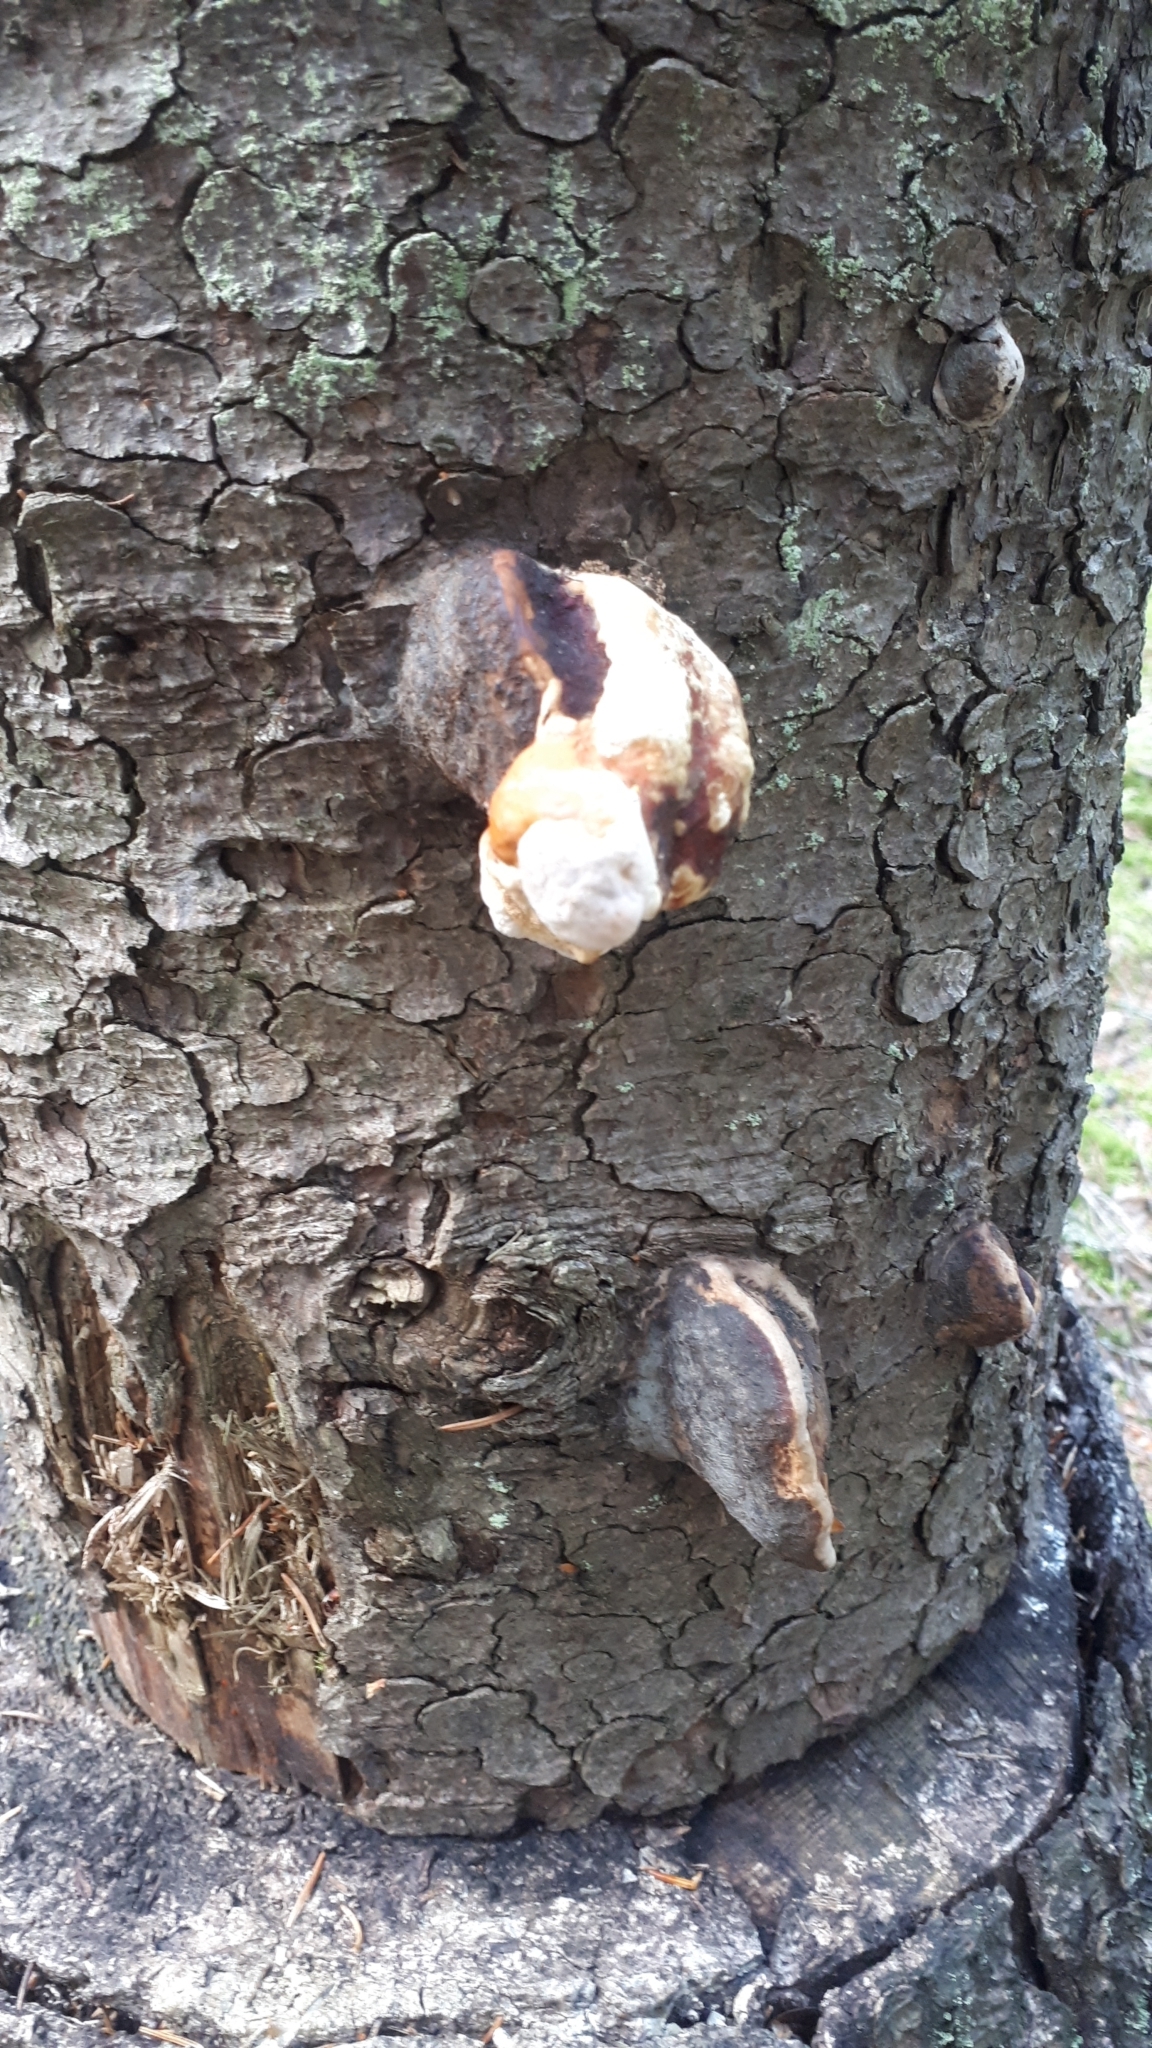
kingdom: Fungi
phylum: Basidiomycota
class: Agaricomycetes
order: Polyporales
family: Fomitopsidaceae
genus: Fomitopsis
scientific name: Fomitopsis pinicola
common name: Red-belted bracket
